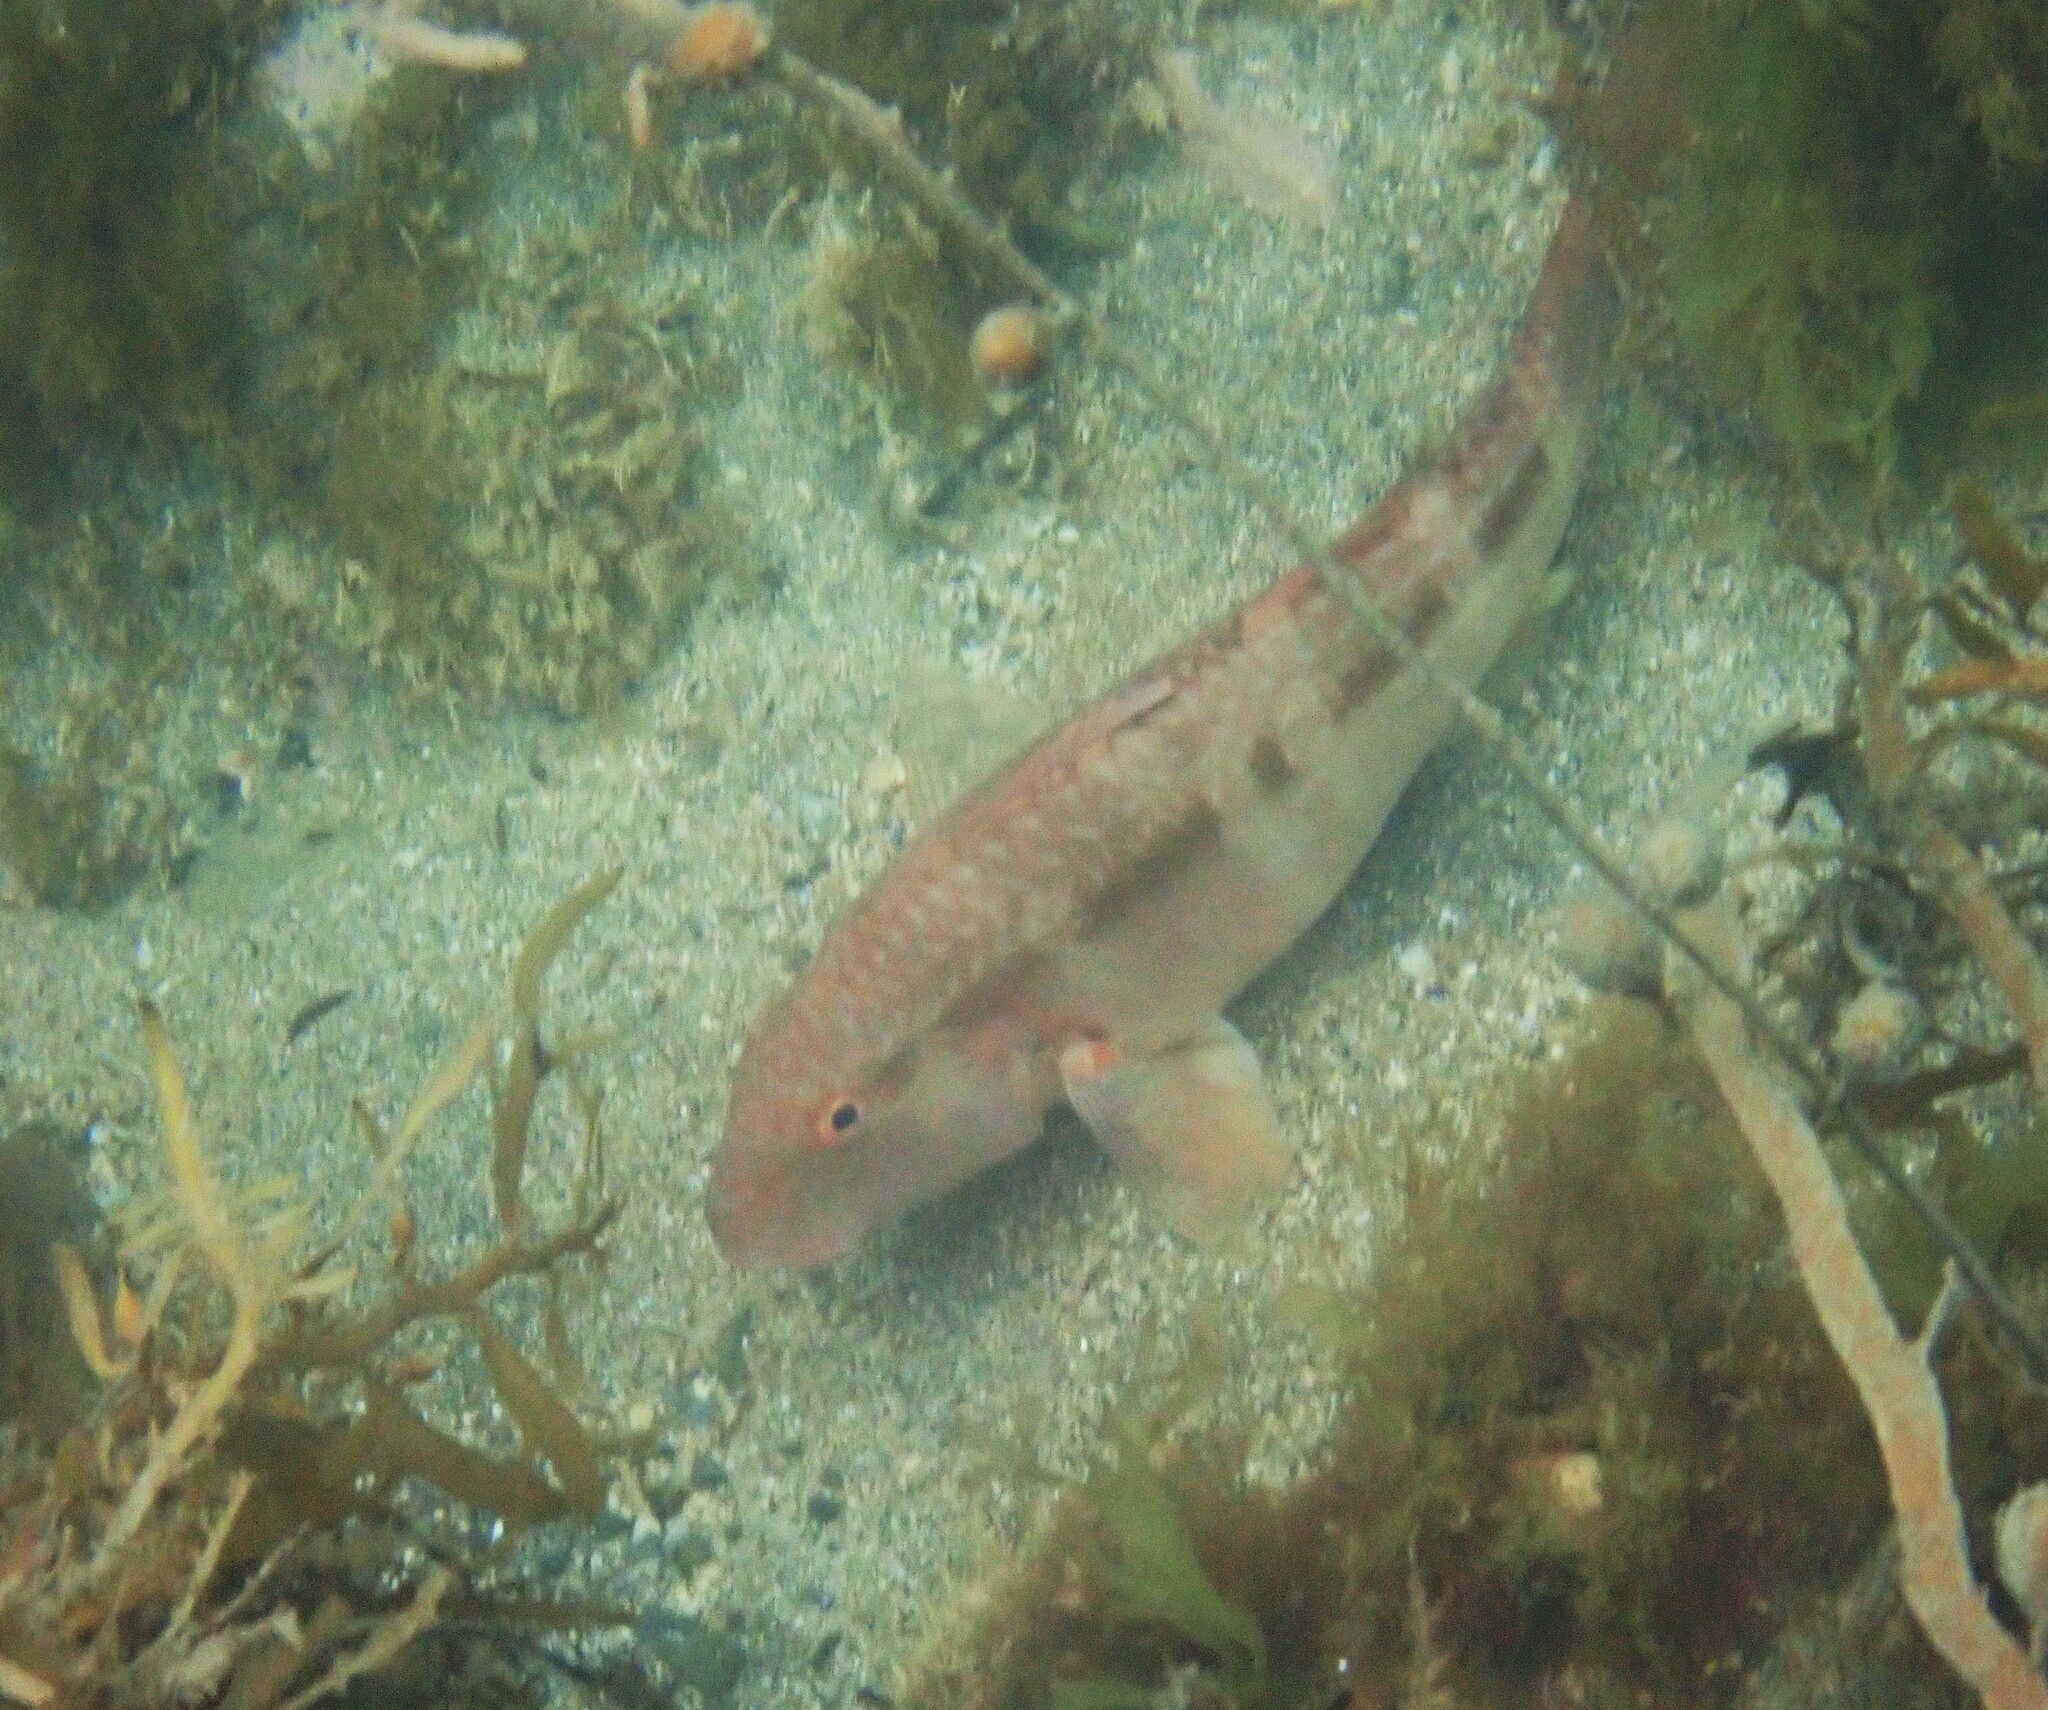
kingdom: Animalia
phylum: Chordata
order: Perciformes
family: Mullidae
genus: Upeneichthys
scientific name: Upeneichthys lineatus
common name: Red mullet
